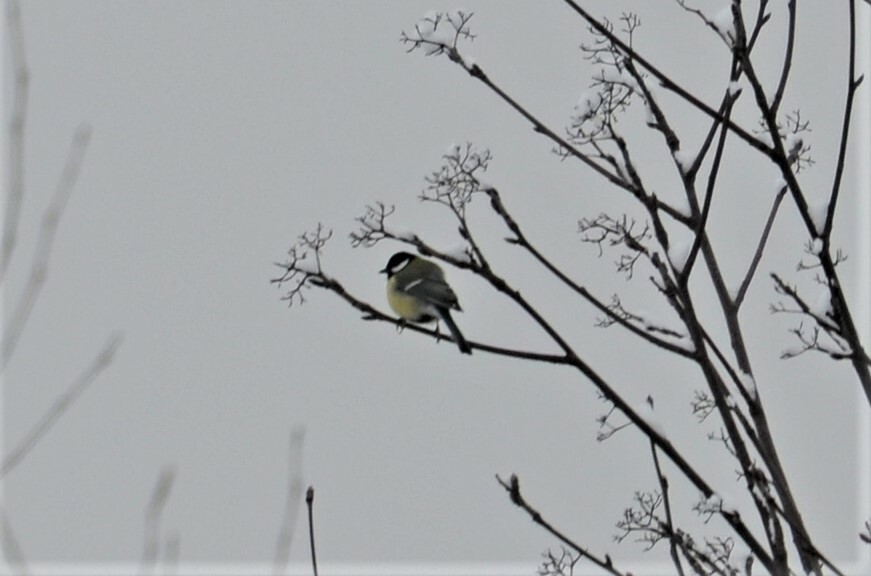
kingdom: Animalia
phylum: Chordata
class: Aves
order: Passeriformes
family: Paridae
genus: Parus
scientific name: Parus major
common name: Great tit
